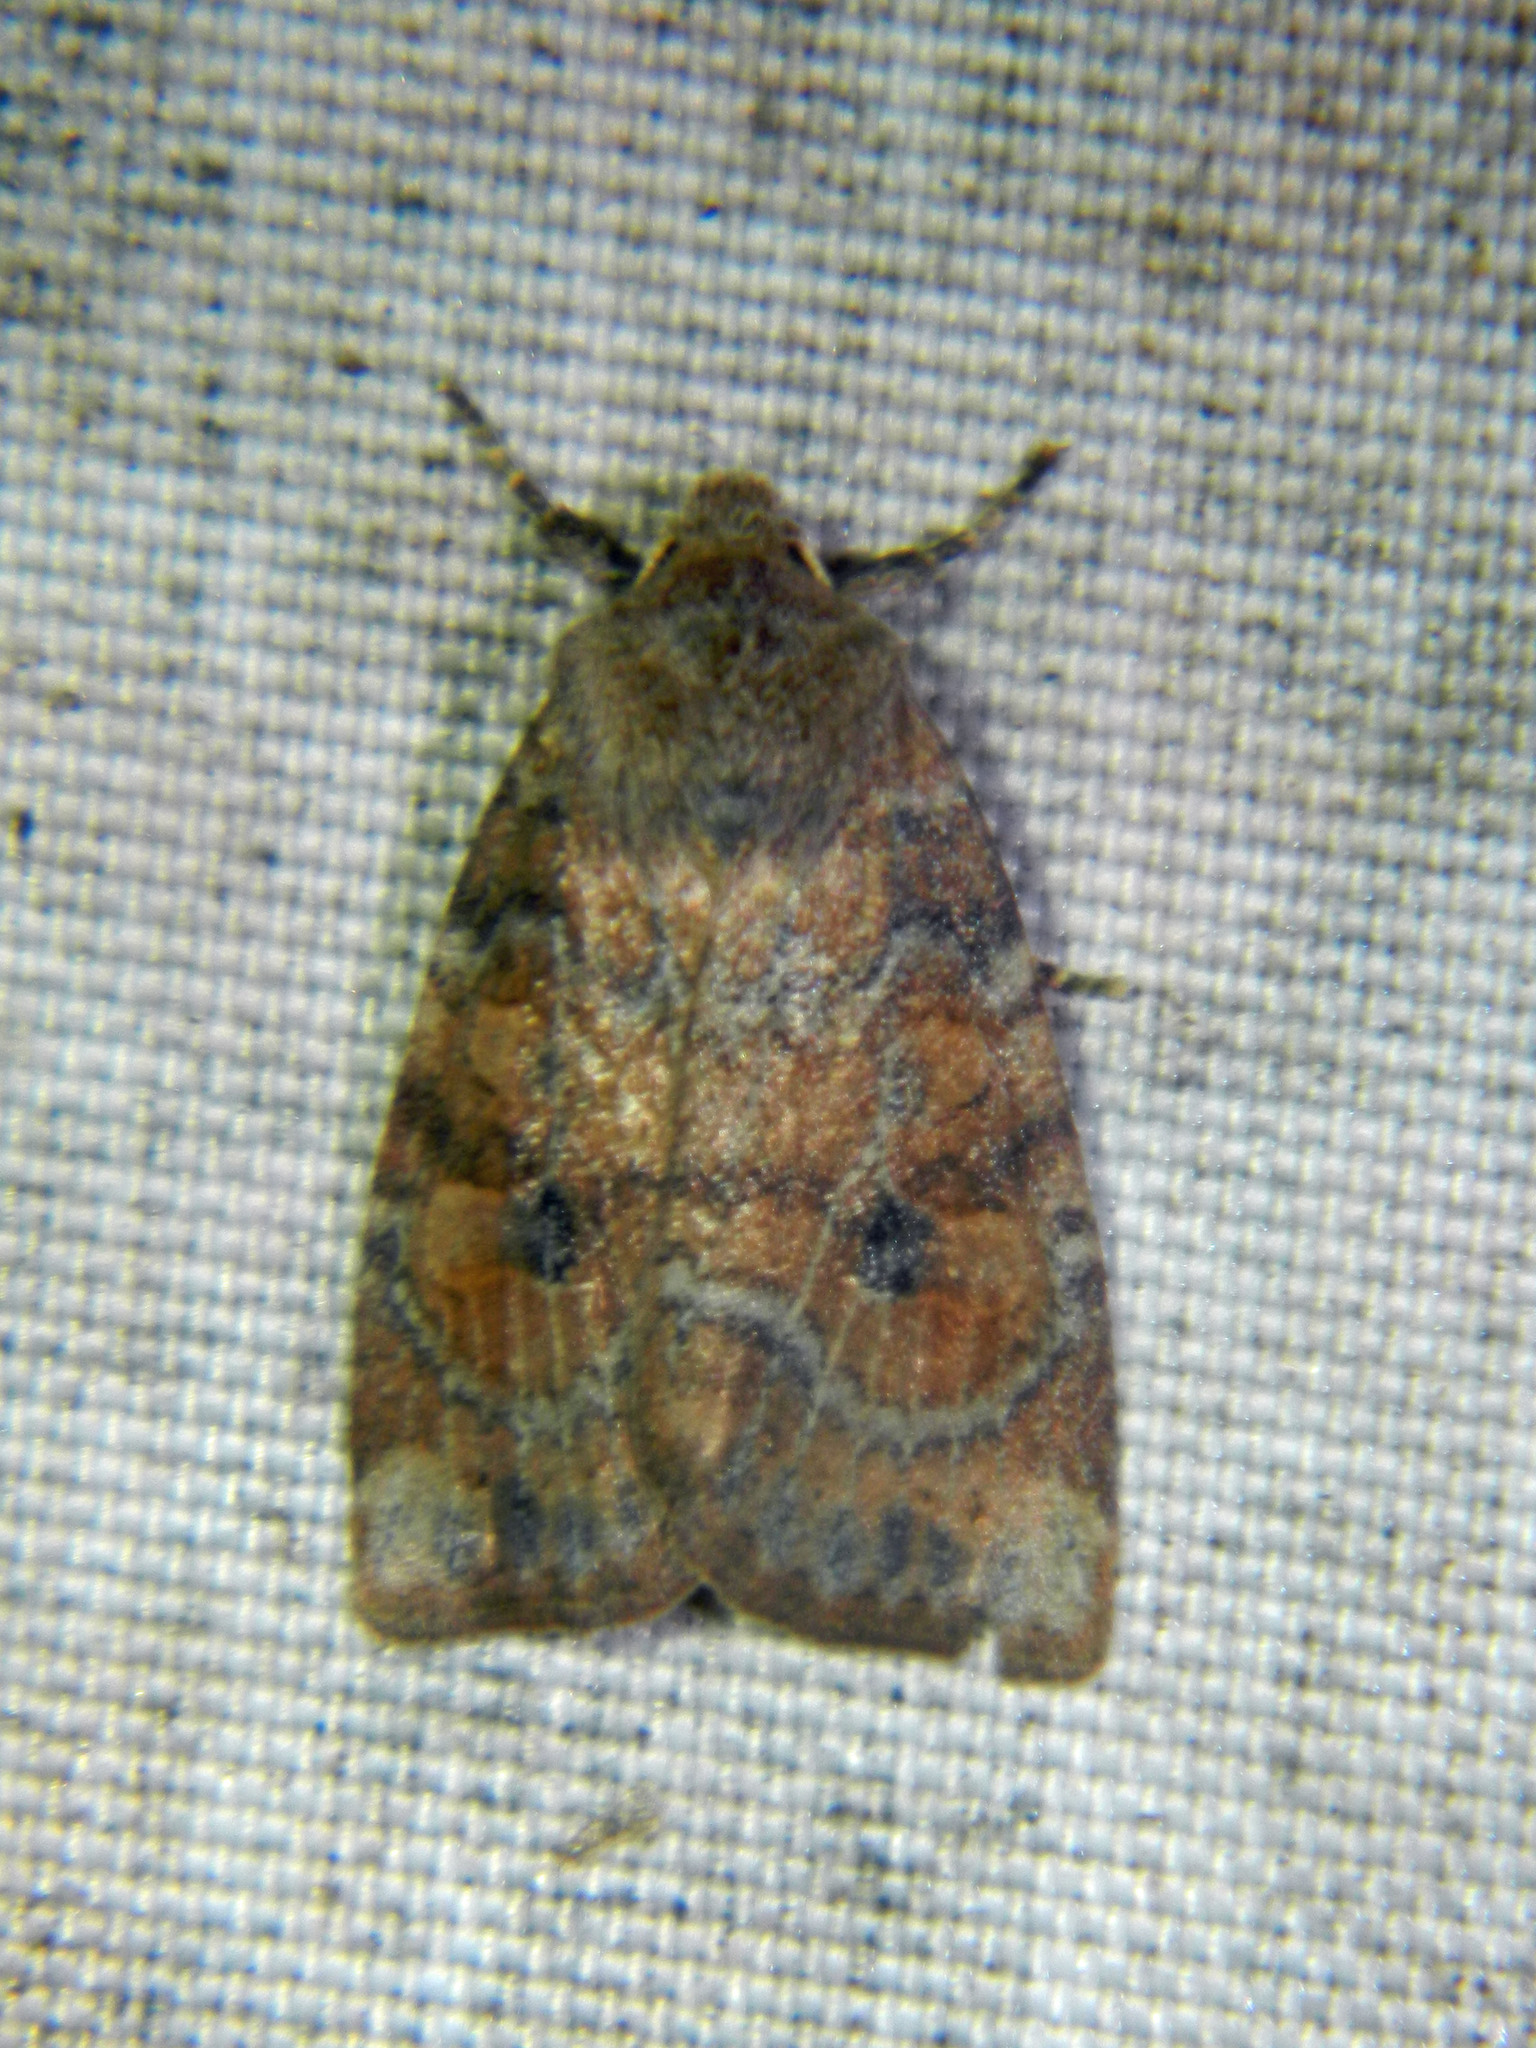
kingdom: Animalia
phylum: Arthropoda
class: Insecta
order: Lepidoptera
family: Noctuidae
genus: Anathix
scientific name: Anathix puta
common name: Puta sallow
